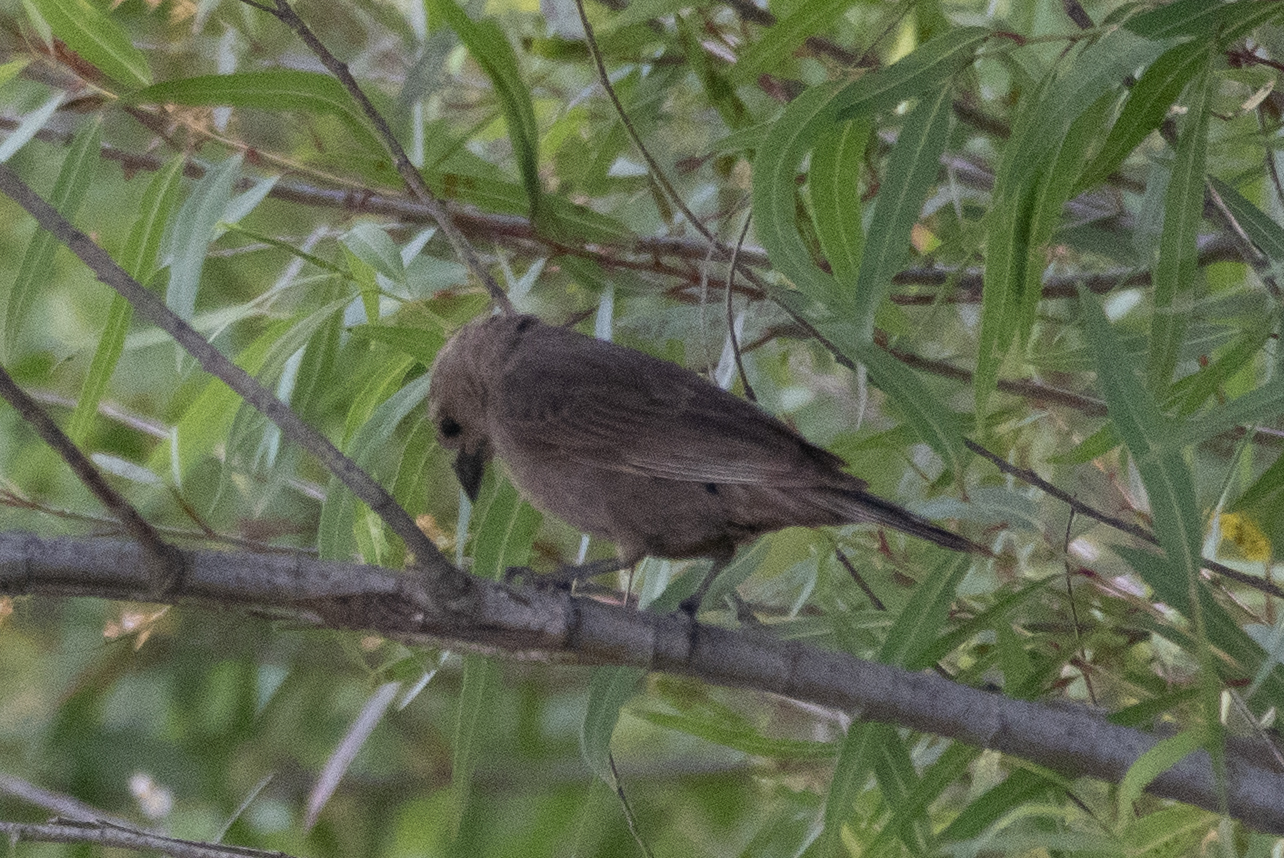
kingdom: Animalia
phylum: Chordata
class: Aves
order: Passeriformes
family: Icteridae
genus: Molothrus
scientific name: Molothrus ater
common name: Brown-headed cowbird
